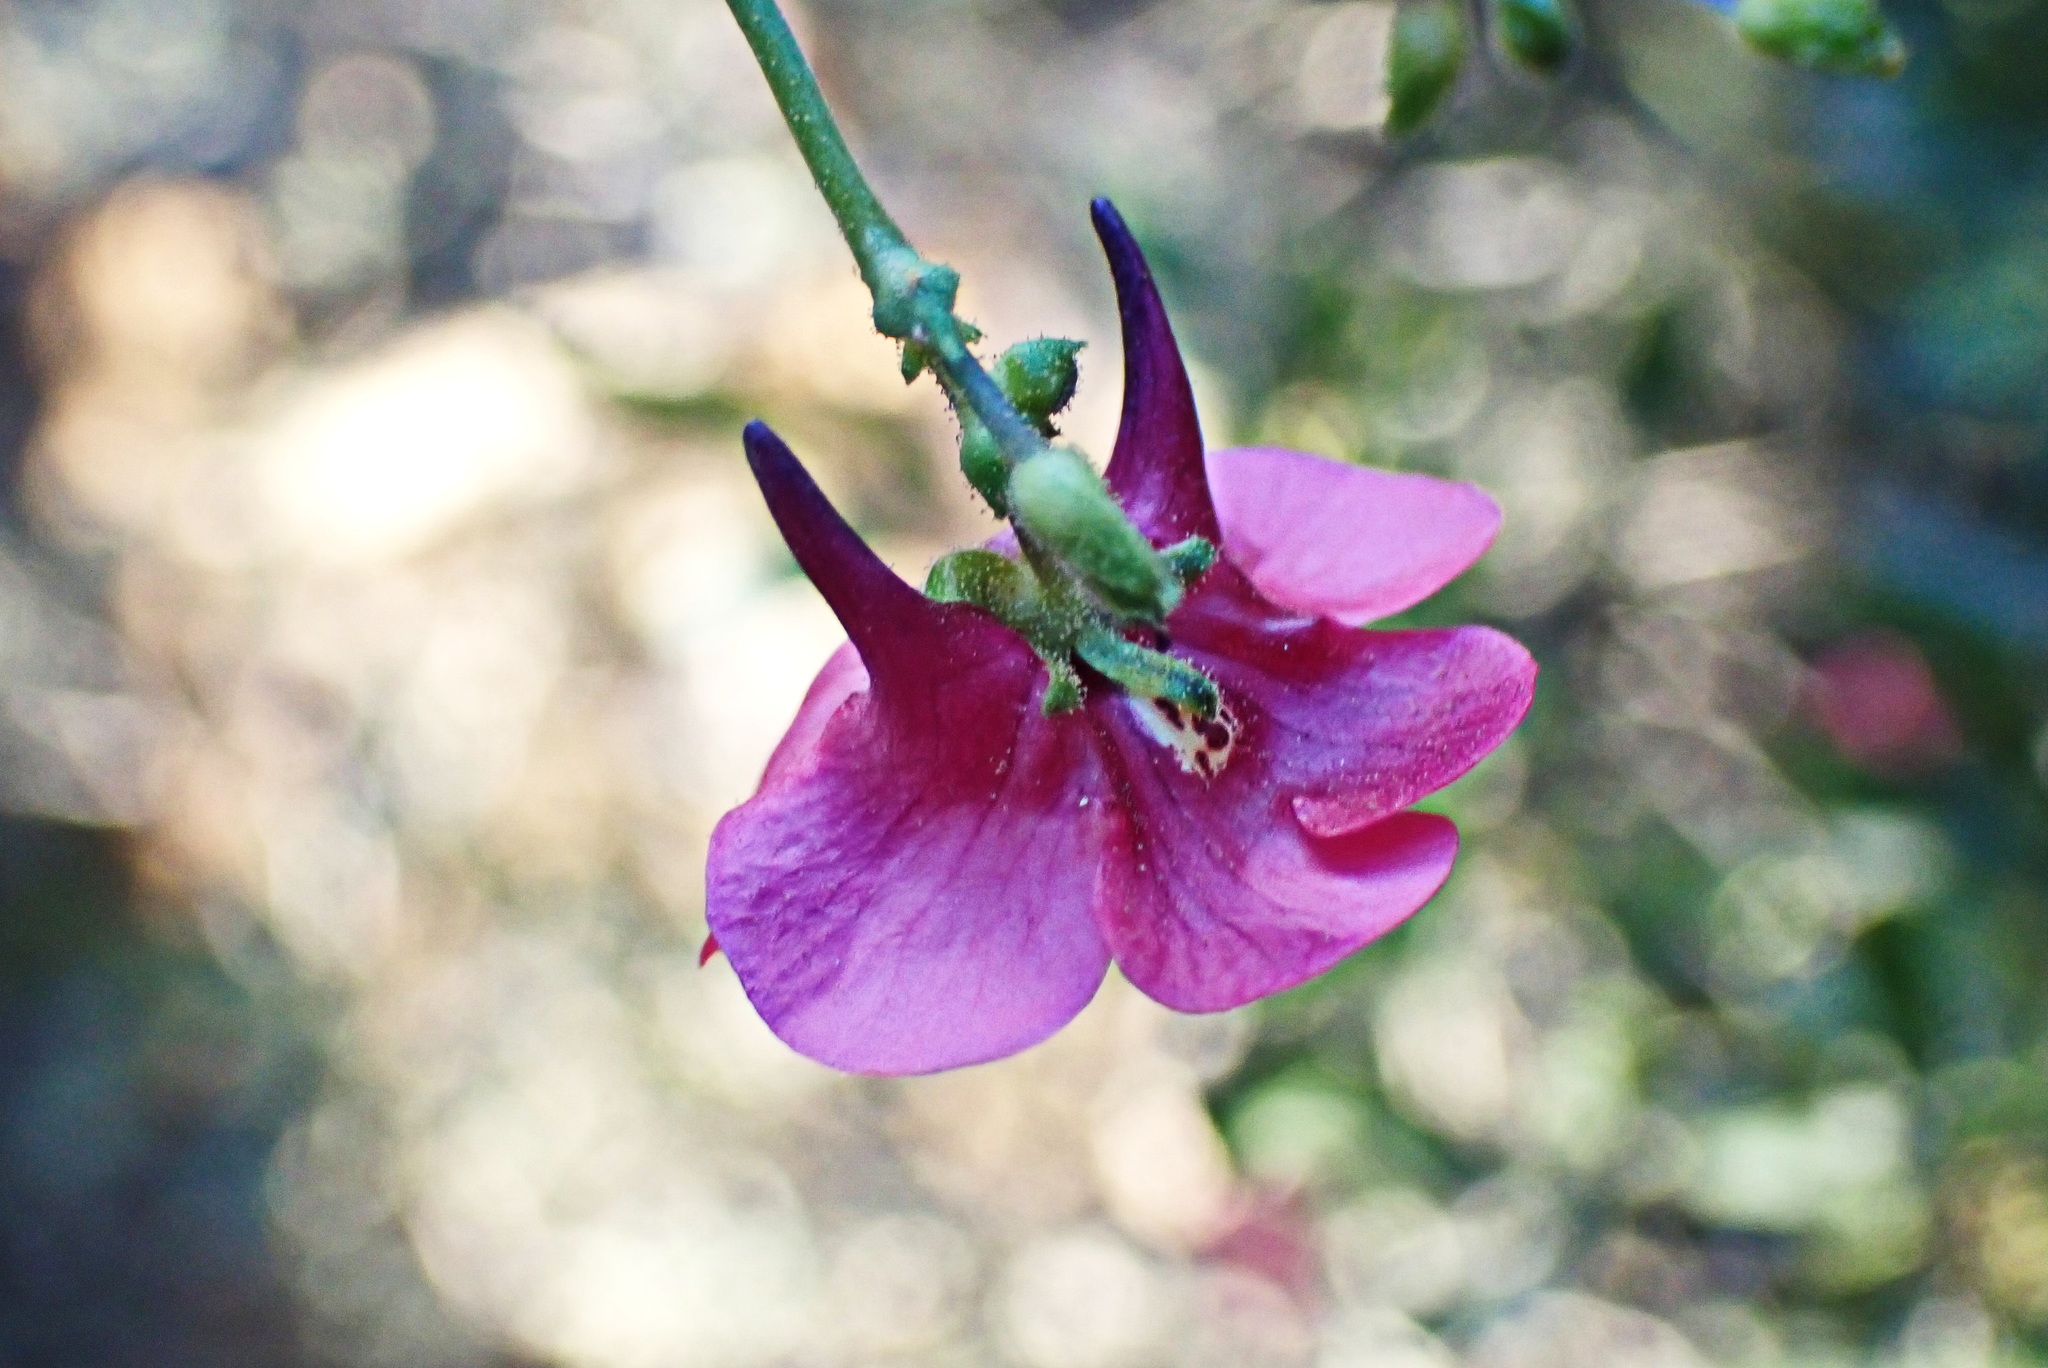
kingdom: Plantae
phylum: Tracheophyta
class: Magnoliopsida
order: Lamiales
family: Scrophulariaceae
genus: Diascia
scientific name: Diascia patens
